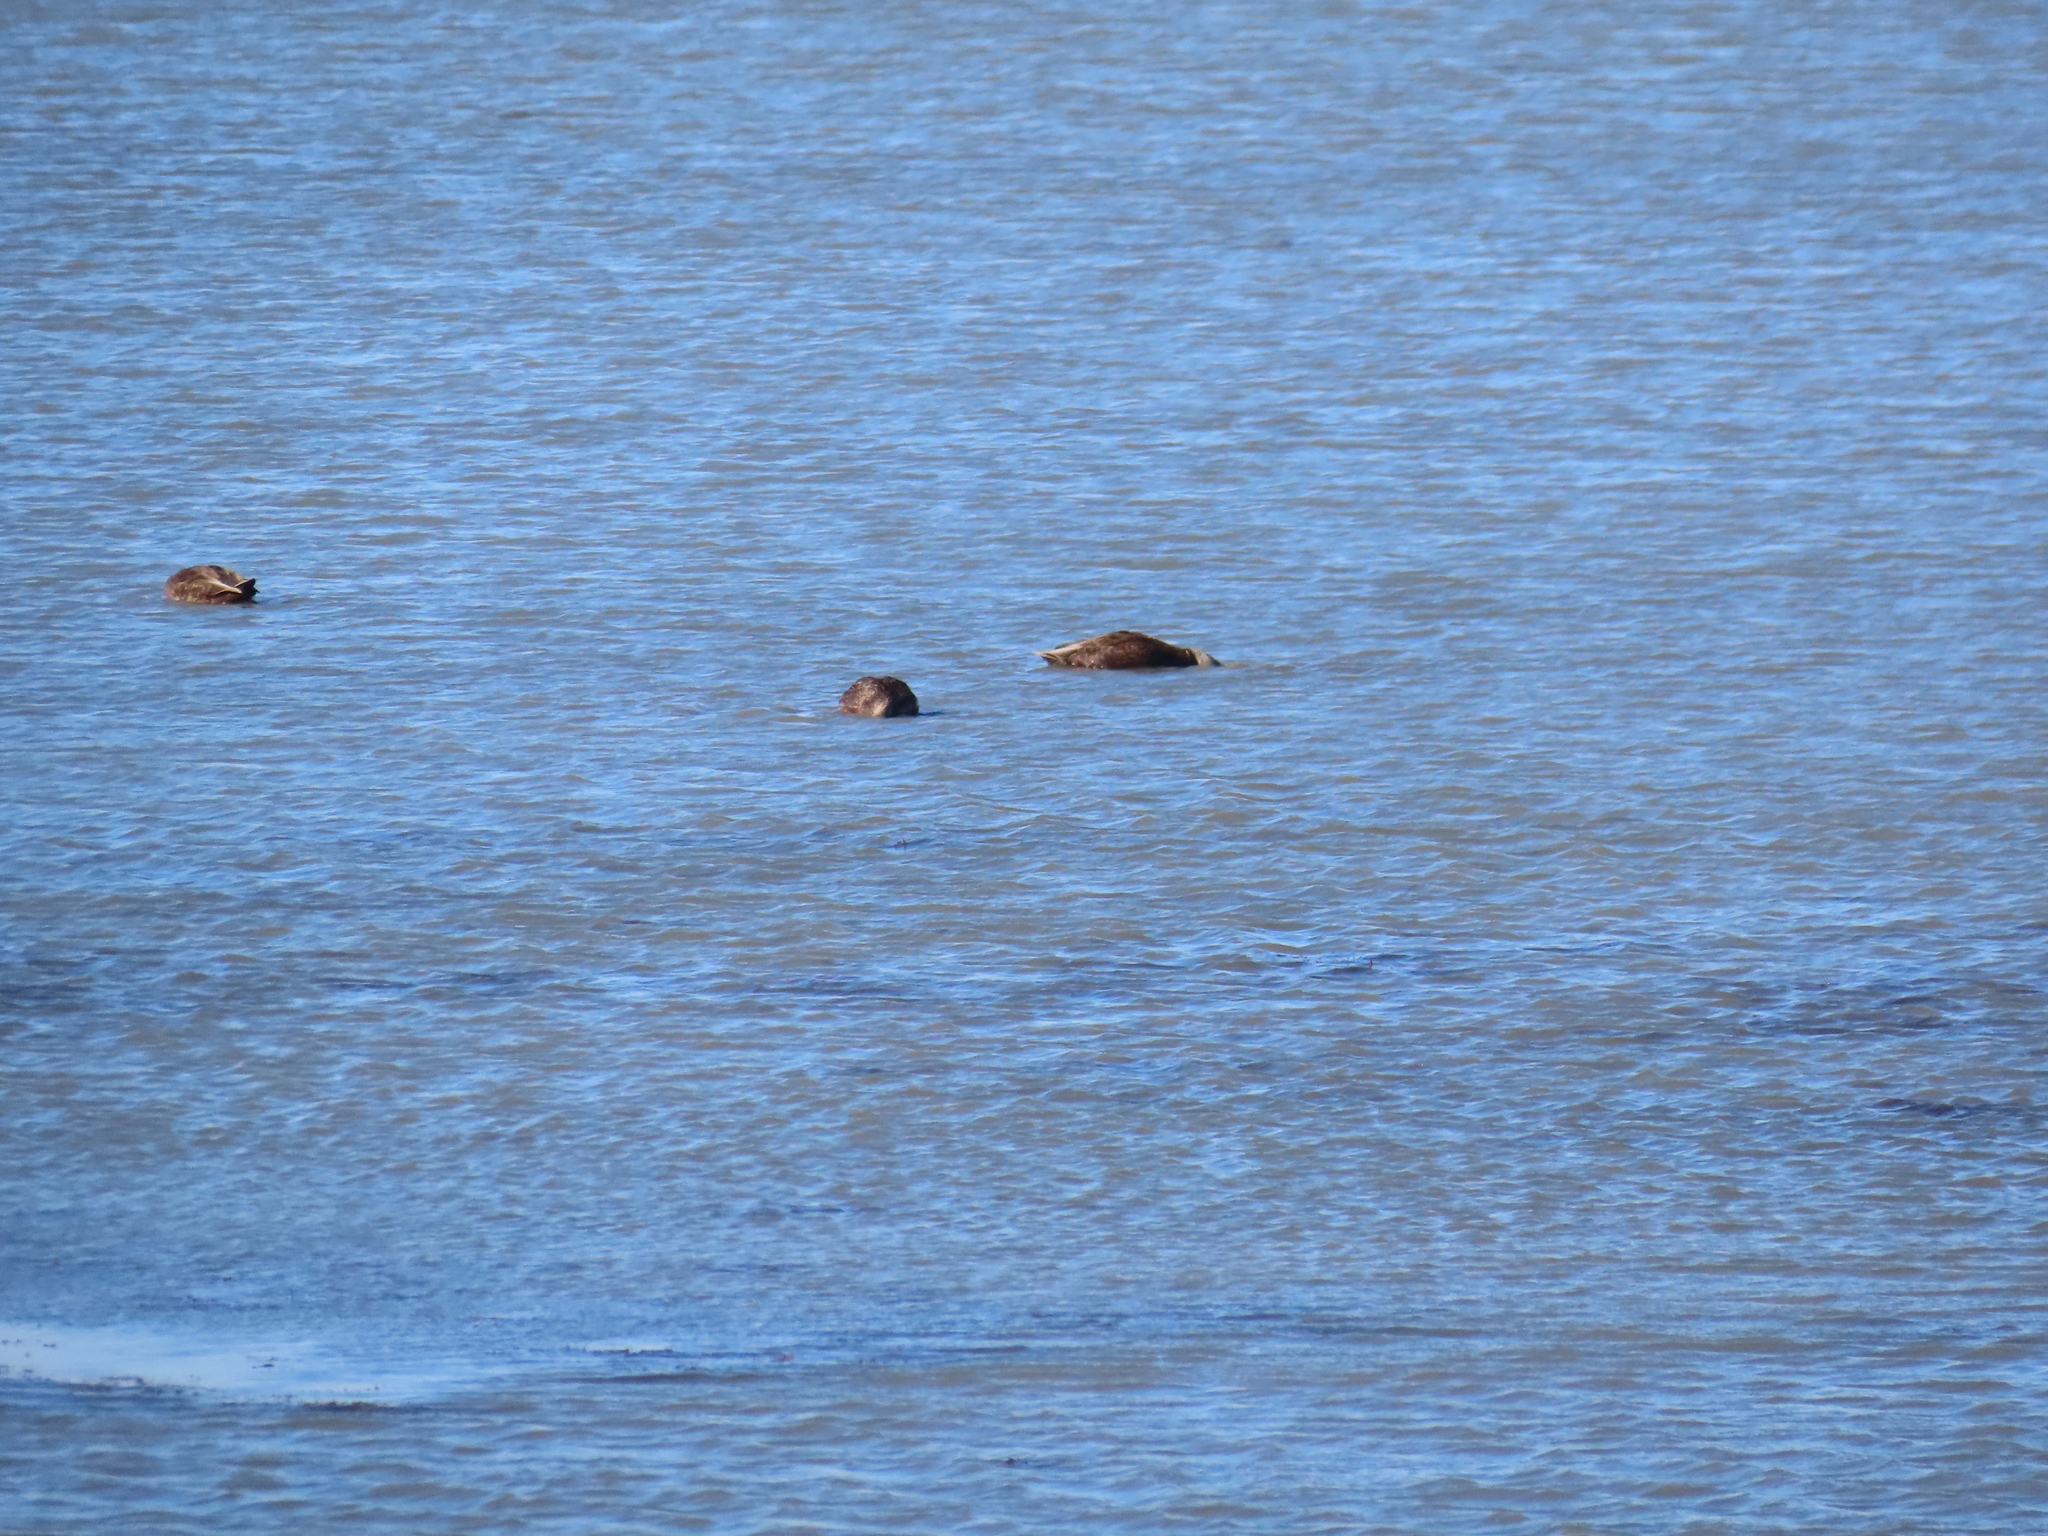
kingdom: Animalia
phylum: Chordata
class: Aves
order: Anseriformes
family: Anatidae
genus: Anas
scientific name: Anas rubripes
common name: American black duck
